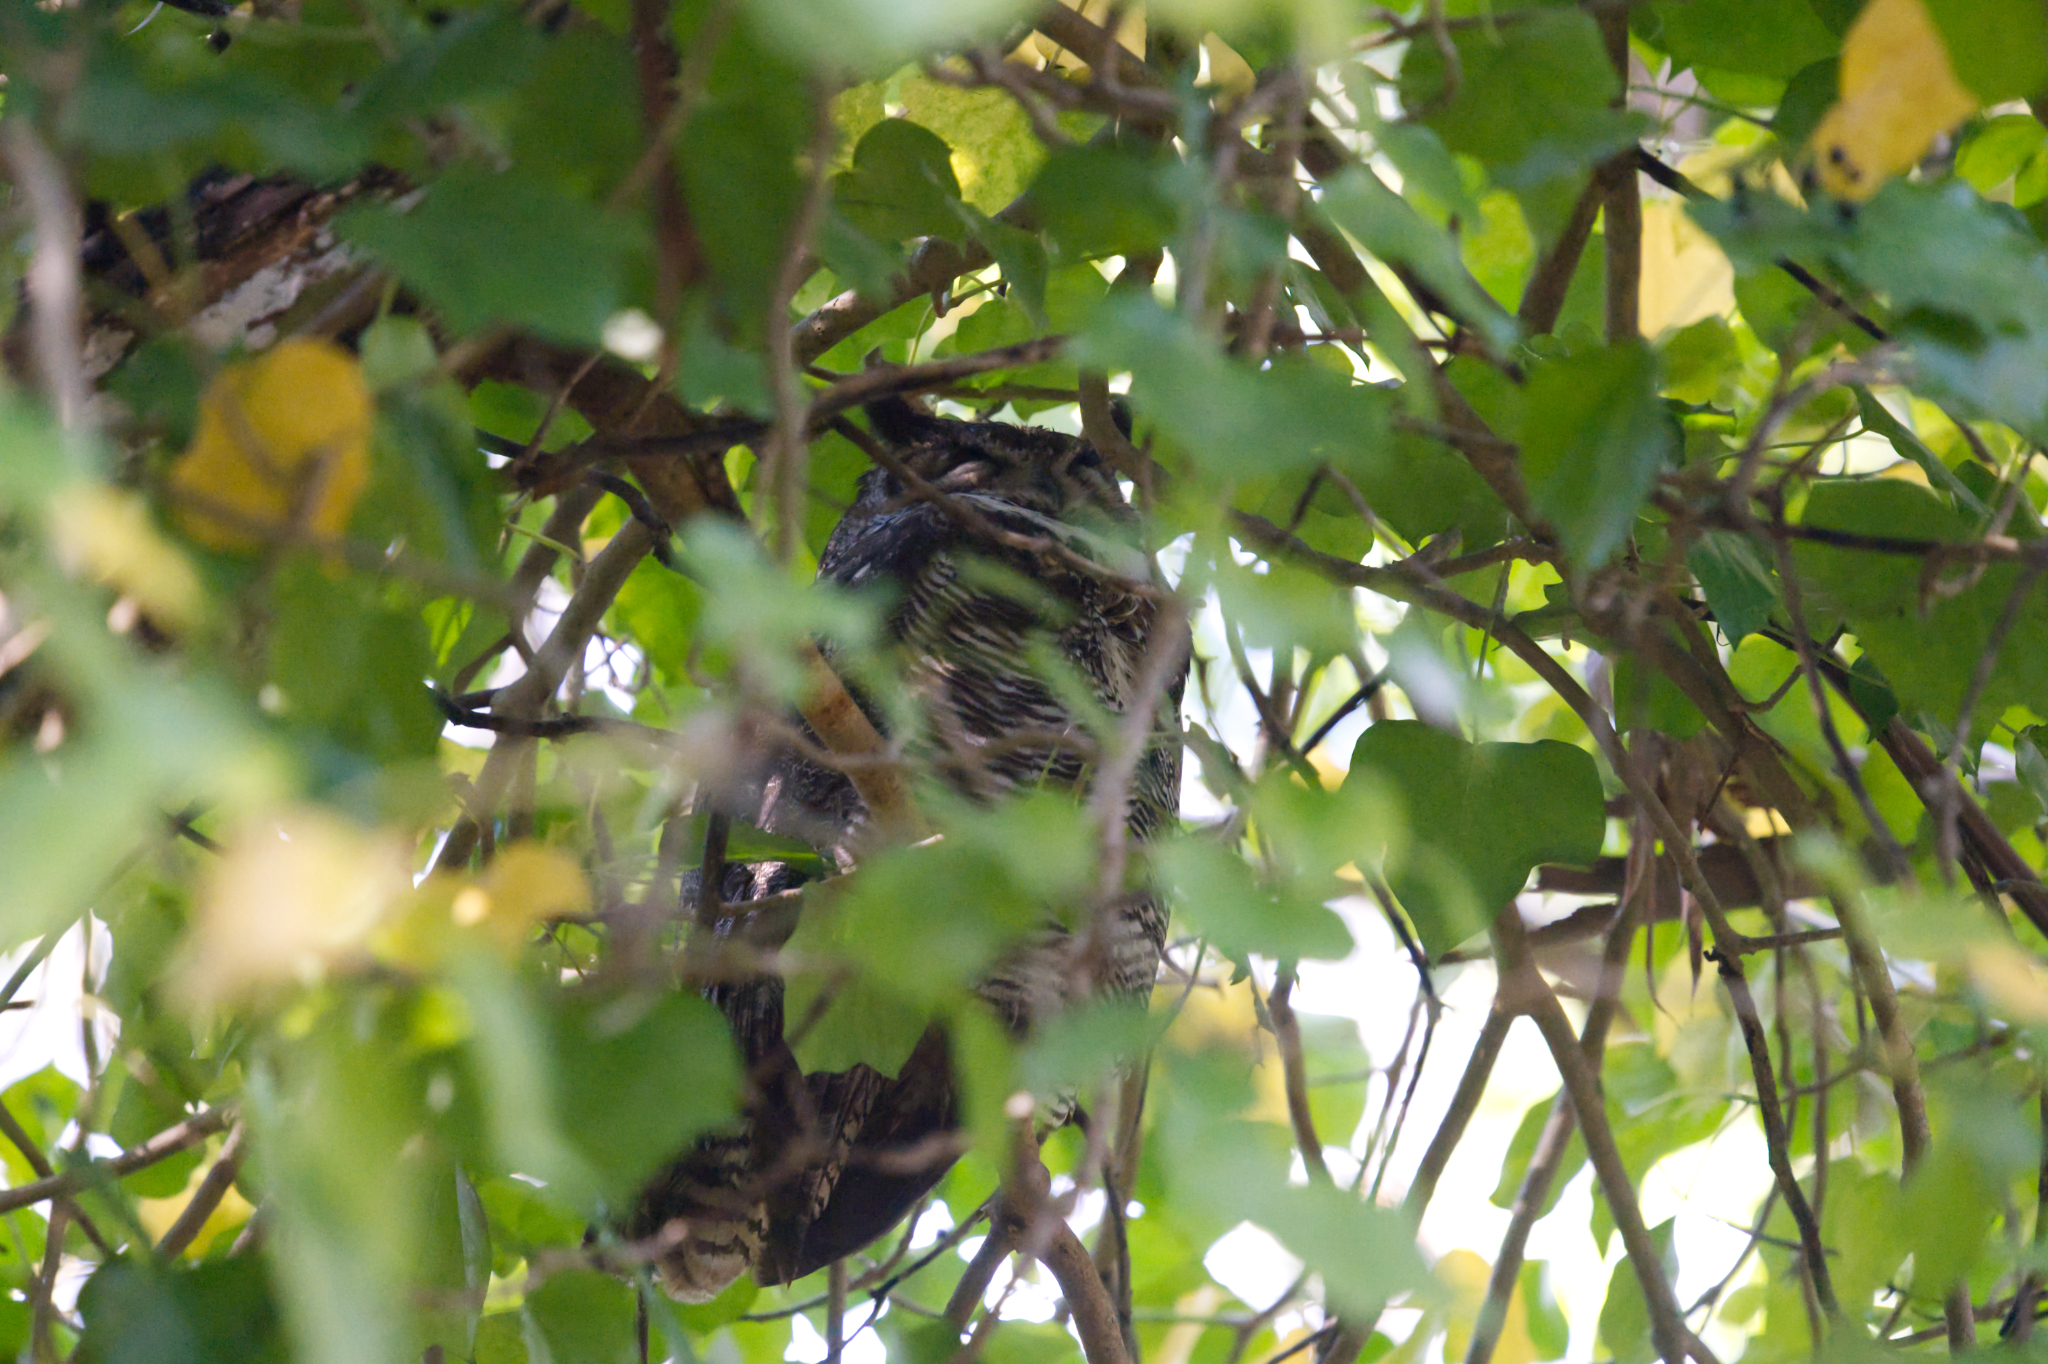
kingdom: Animalia
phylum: Chordata
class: Aves
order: Strigiformes
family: Strigidae
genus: Bubo
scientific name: Bubo virginianus
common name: Great horned owl
